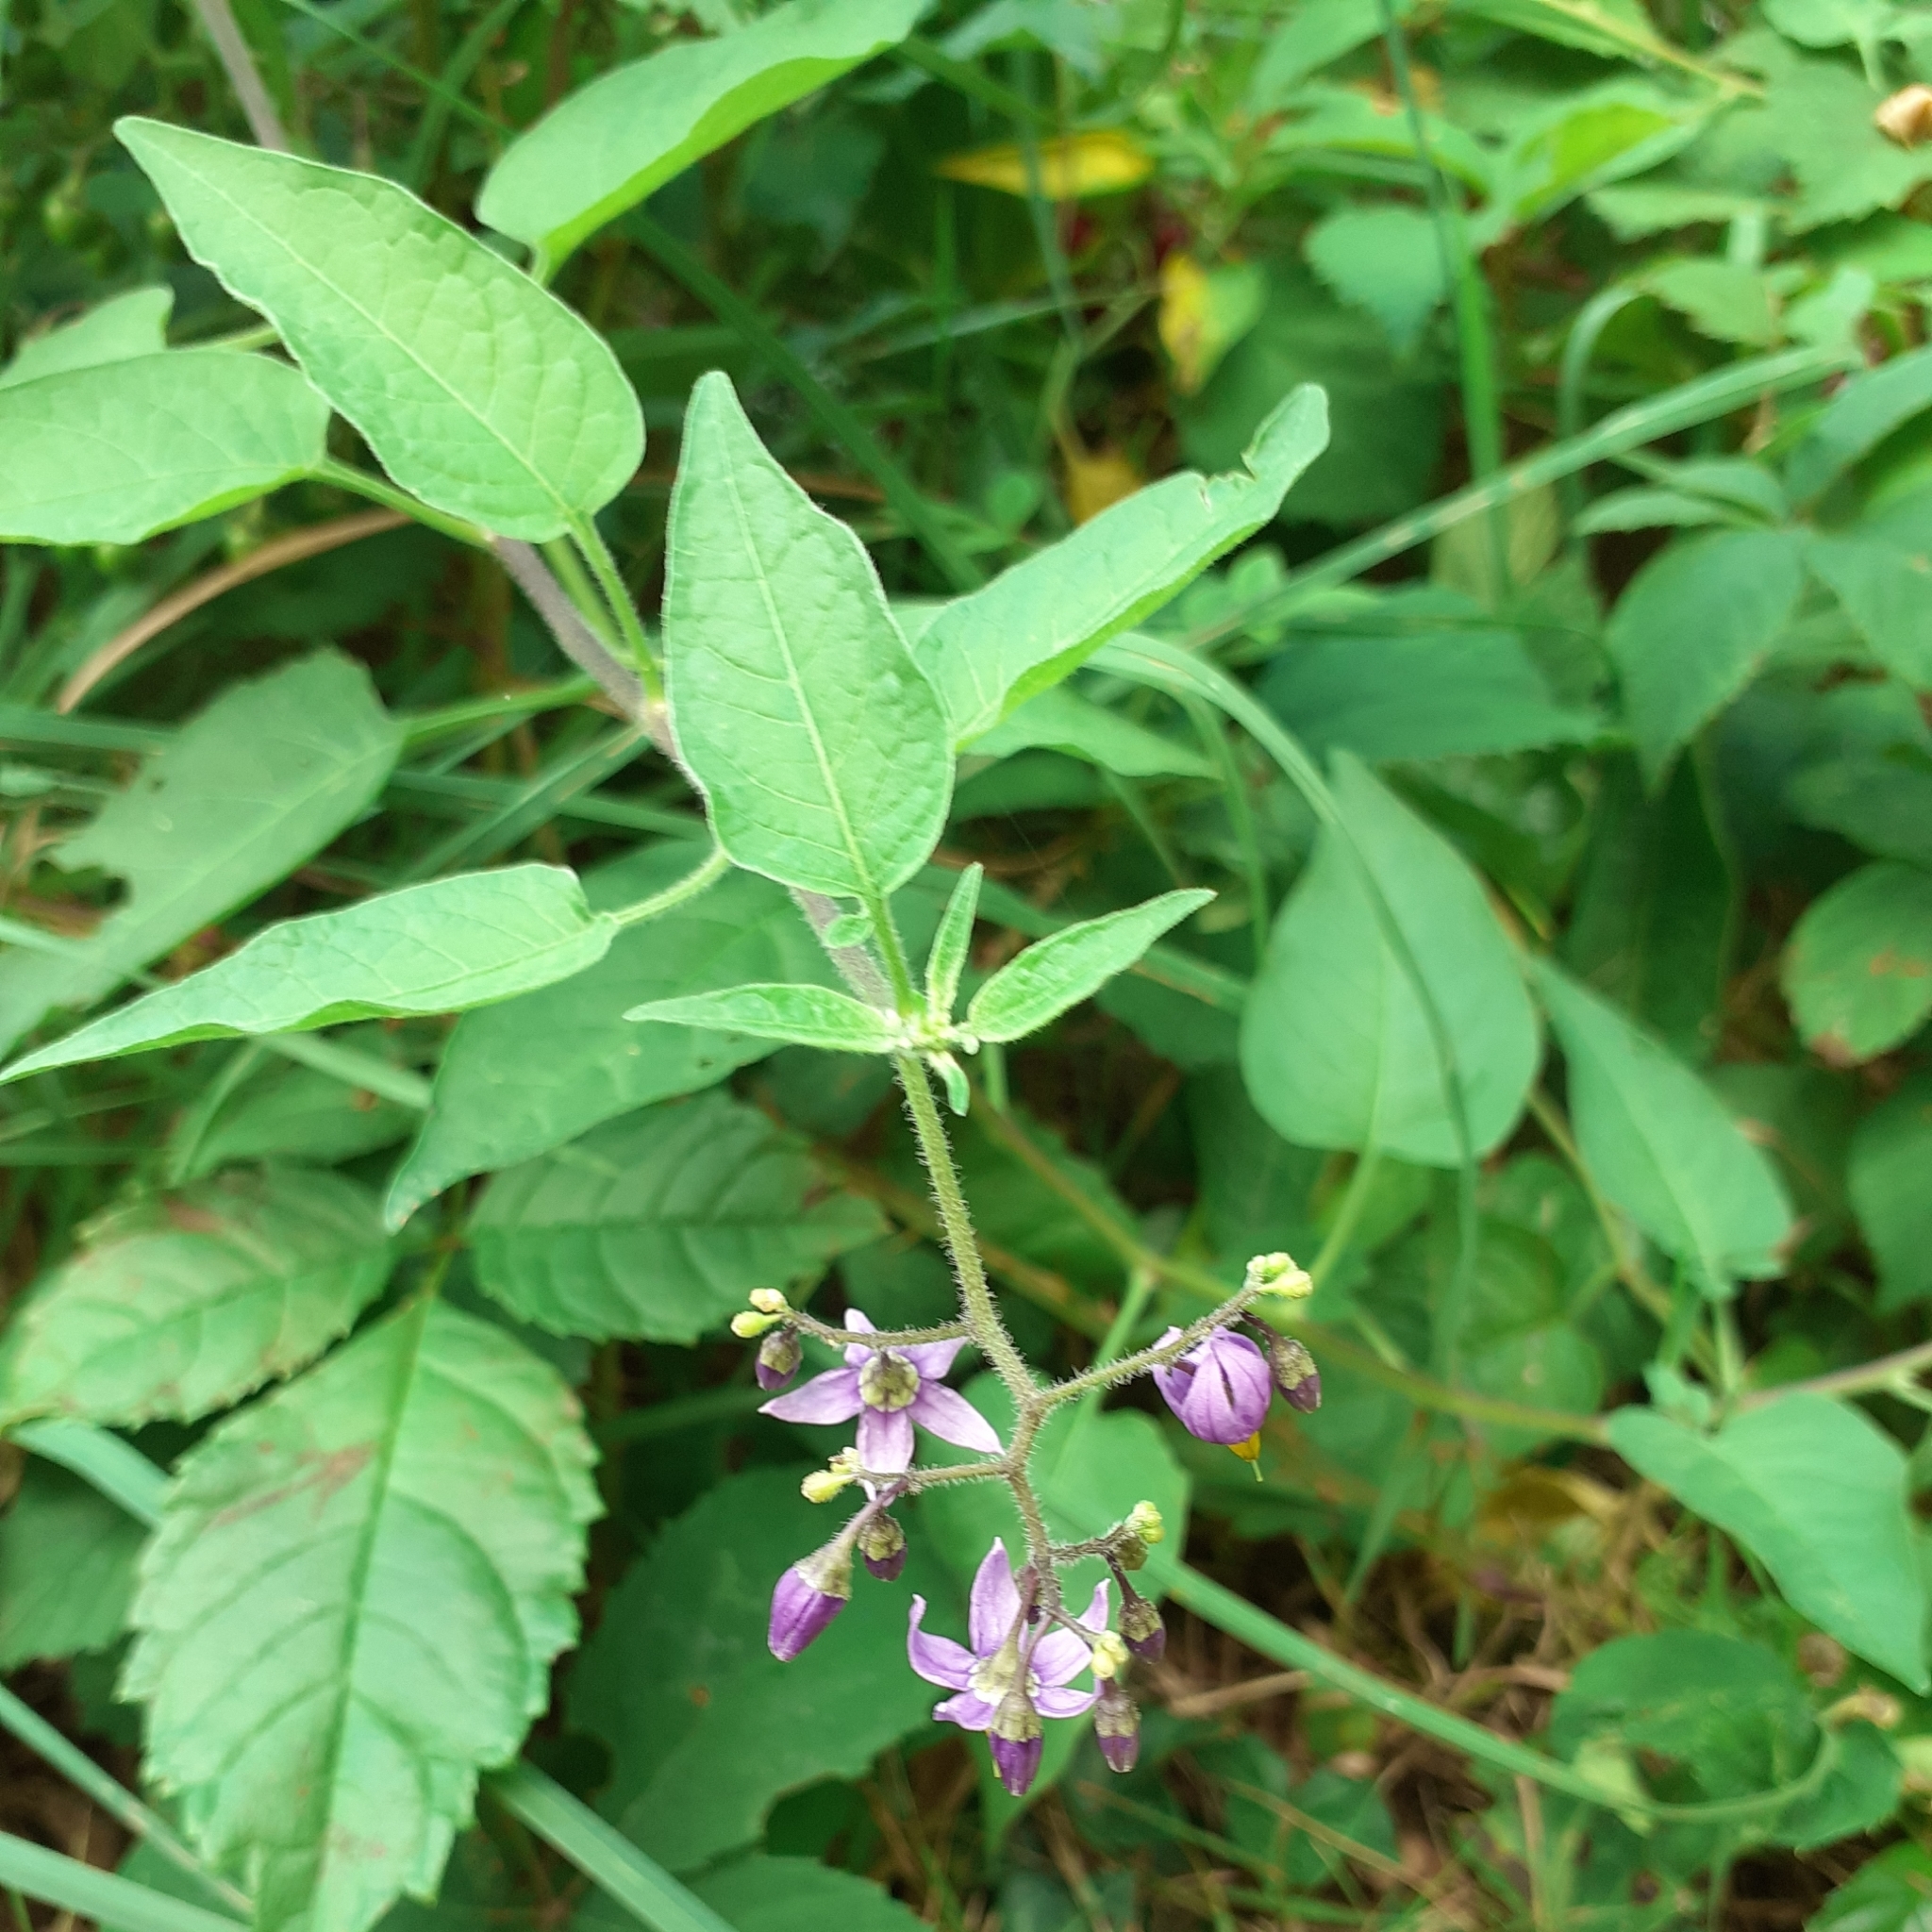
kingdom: Plantae
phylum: Tracheophyta
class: Magnoliopsida
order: Solanales
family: Solanaceae
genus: Solanum
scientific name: Solanum dulcamara
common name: Climbing nightshade
